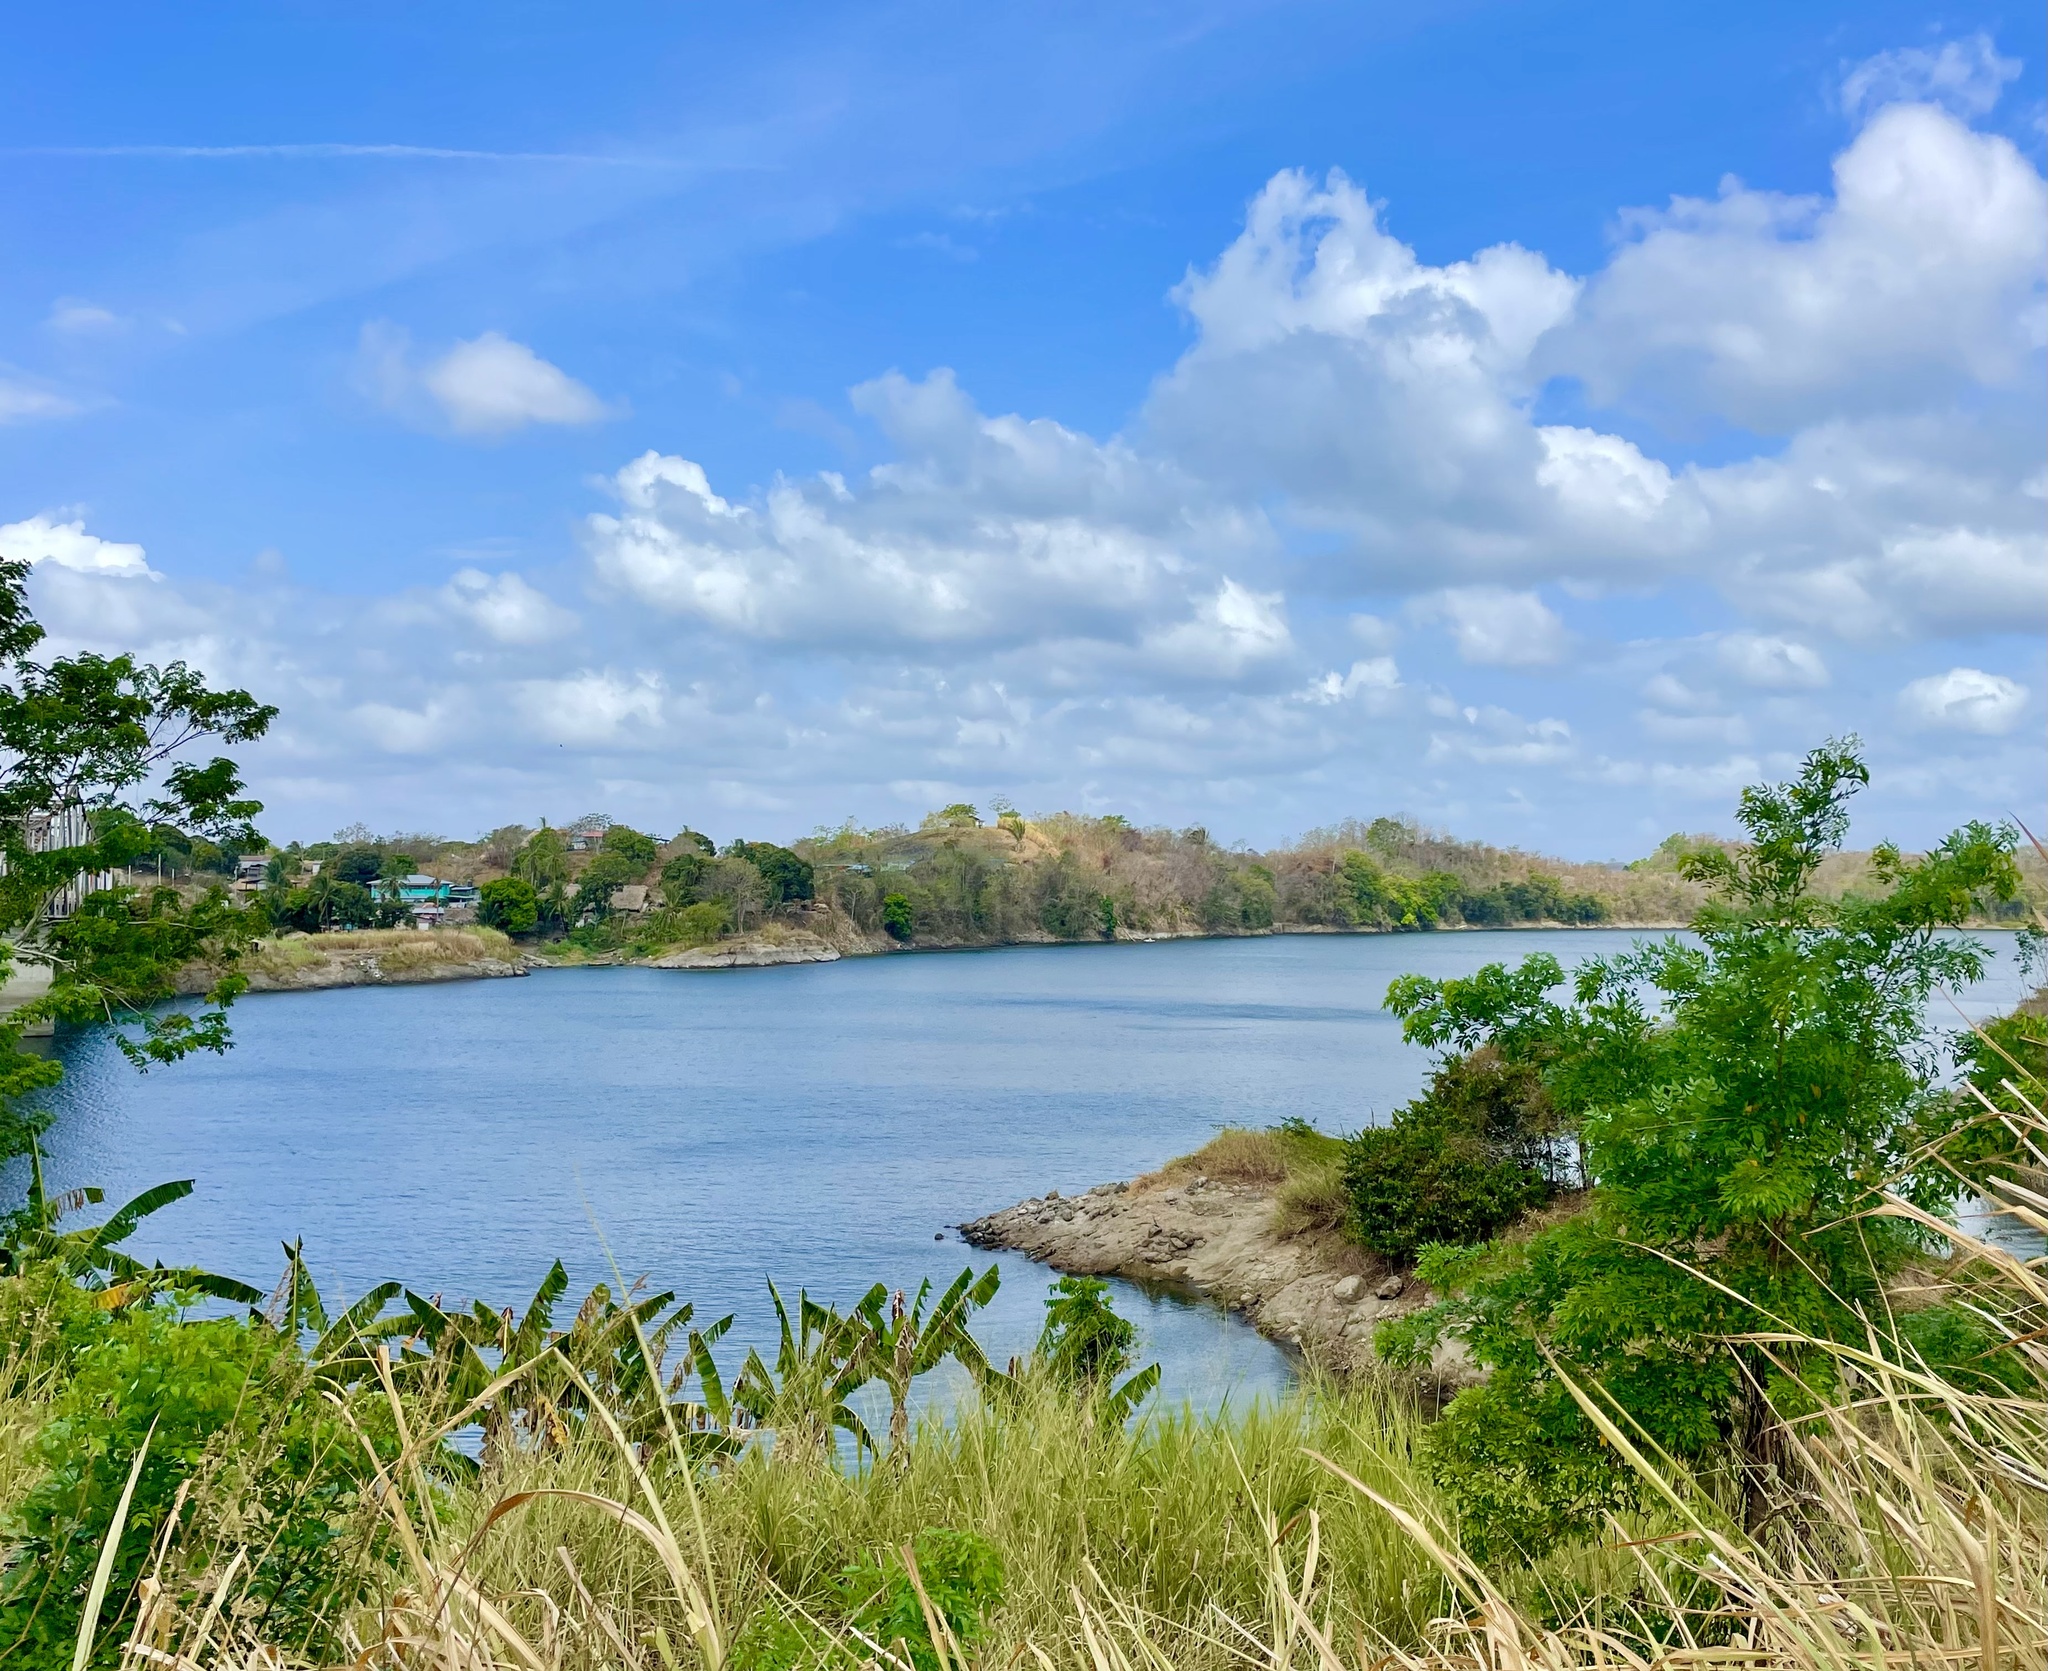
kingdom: Animalia
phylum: Chordata
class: Aves
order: Psittaciformes
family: Psittacidae
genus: Brotogeris
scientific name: Brotogeris jugularis
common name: Orange-chinned parakeet
